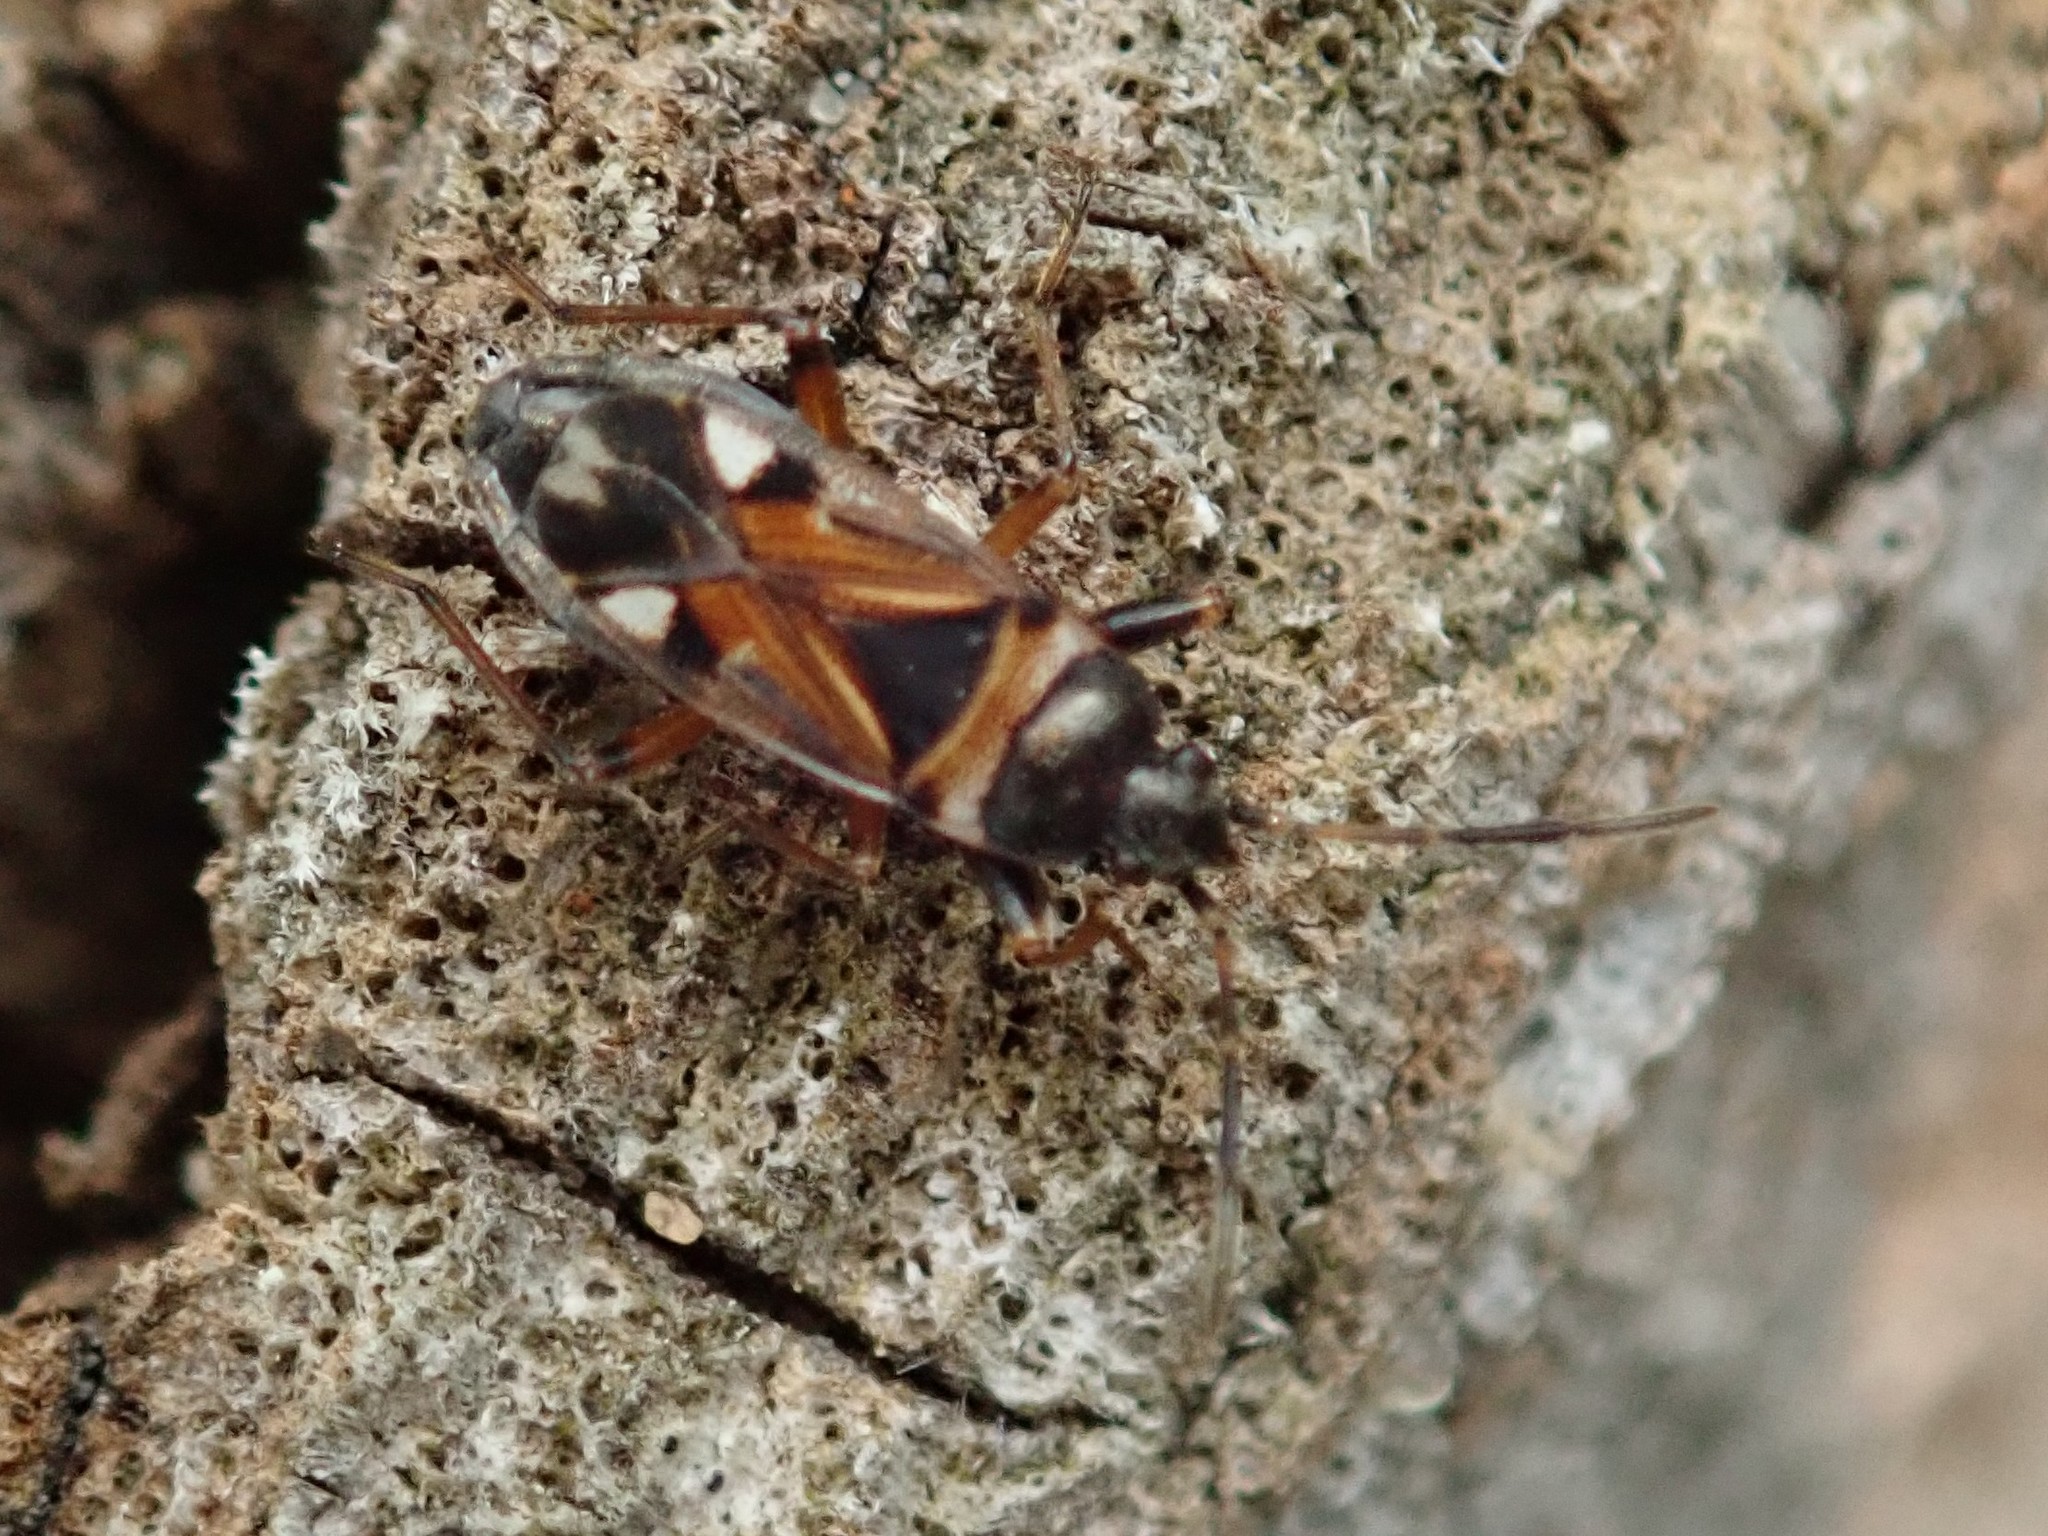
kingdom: Animalia
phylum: Arthropoda
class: Insecta
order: Hemiptera
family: Rhyparochromidae
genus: Raglius
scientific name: Raglius alboacuminatus
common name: Dirt-colored seed bug
